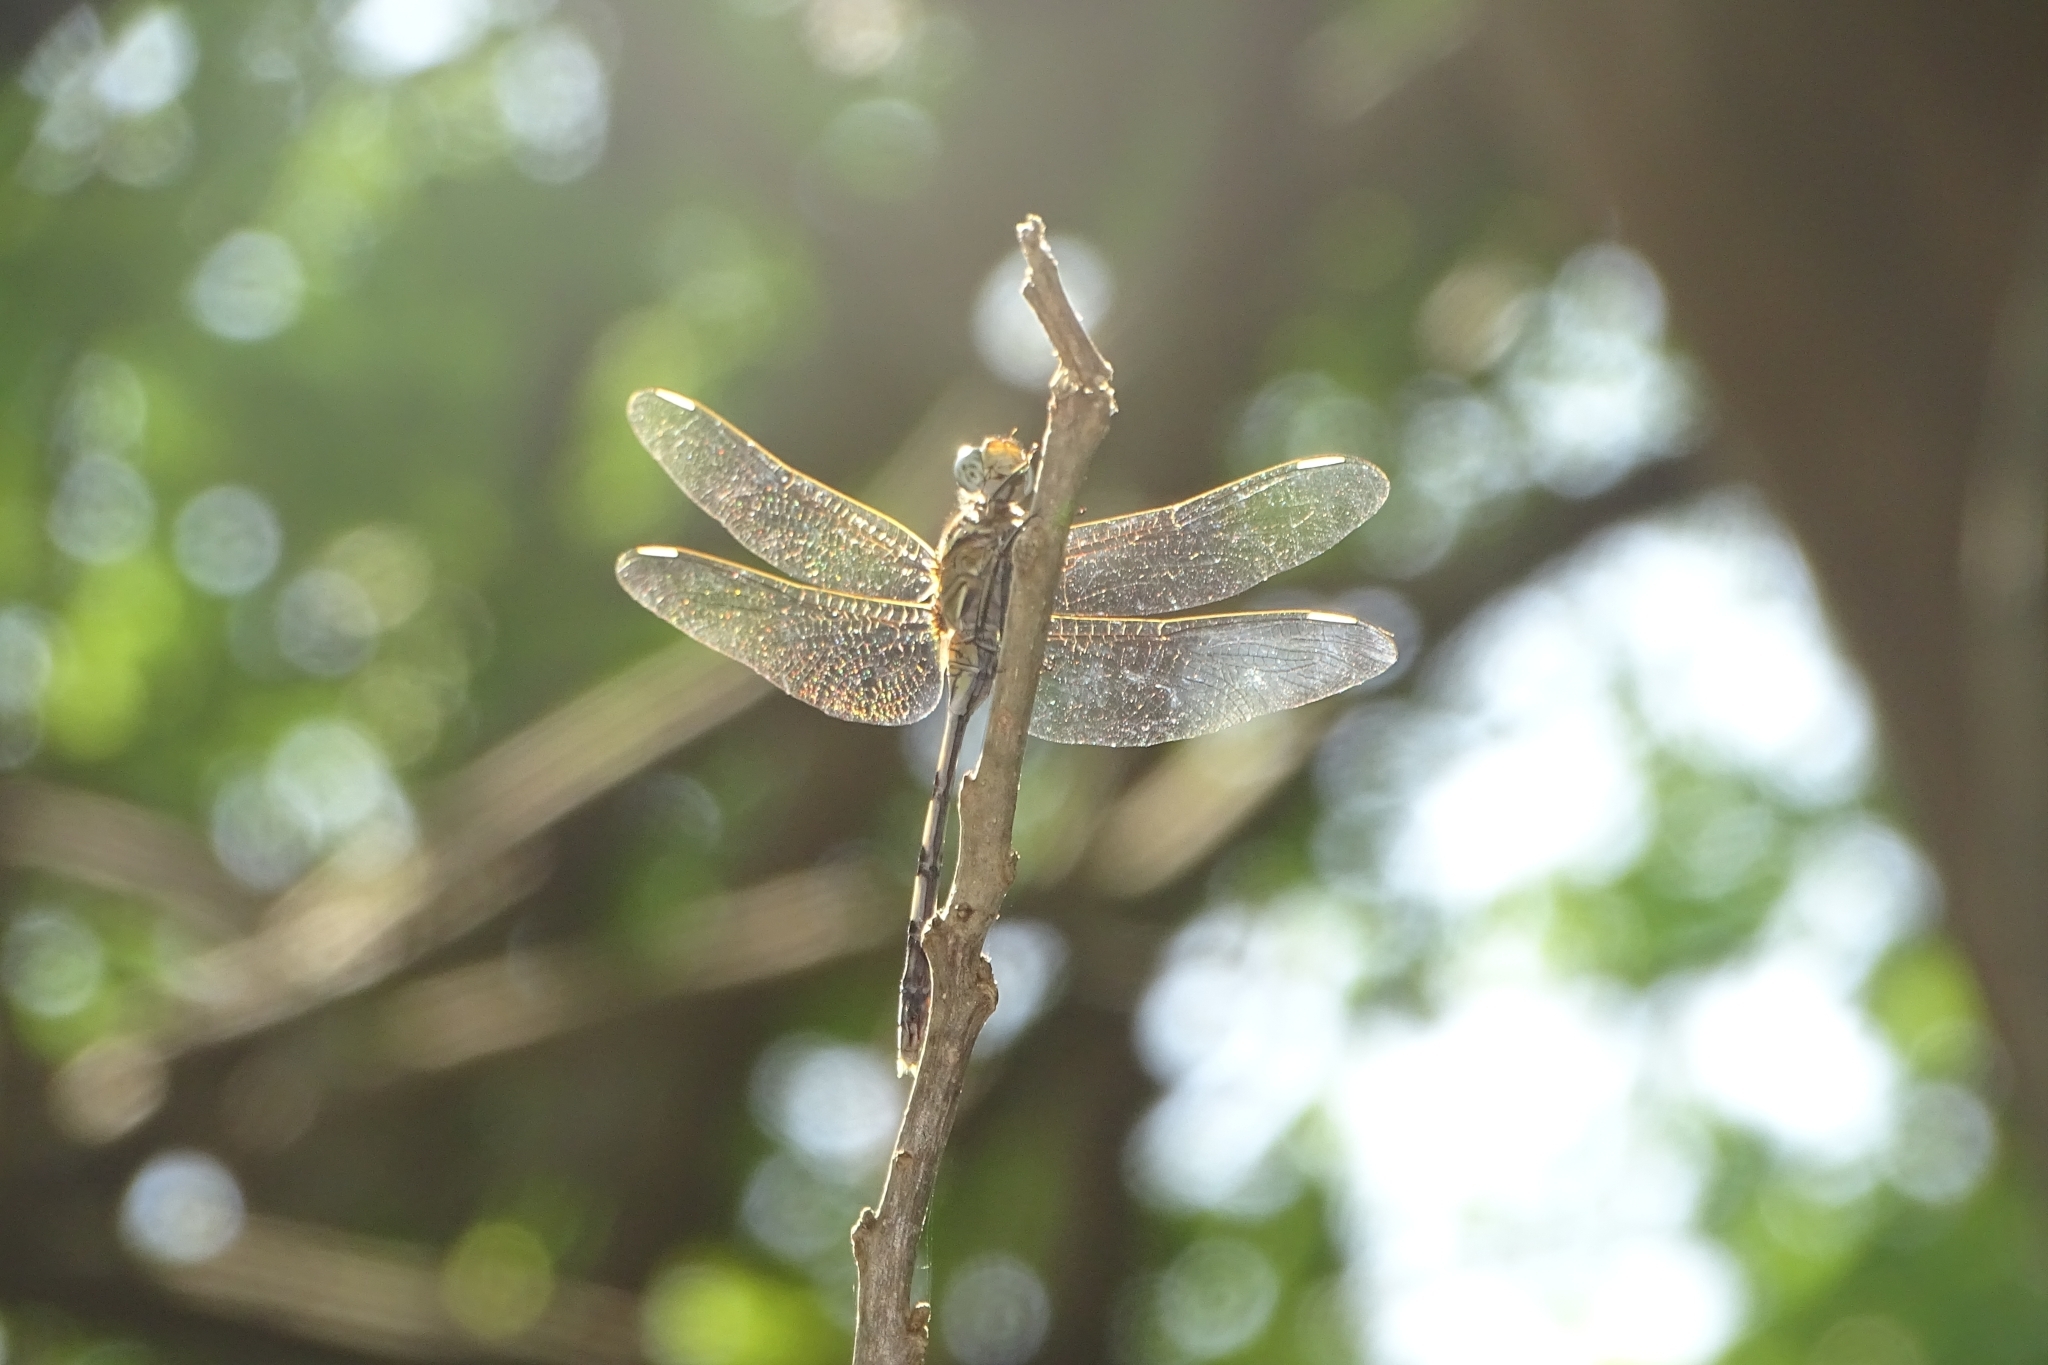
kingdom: Animalia
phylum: Arthropoda
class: Insecta
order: Odonata
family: Libellulidae
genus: Orthetrum
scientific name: Orthetrum sabina
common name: Slender skimmer
